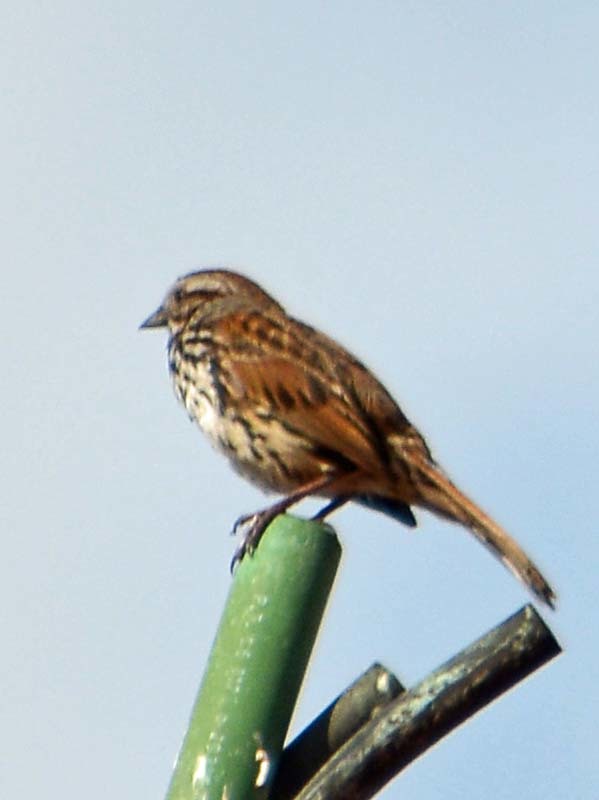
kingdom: Animalia
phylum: Chordata
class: Aves
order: Passeriformes
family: Passerellidae
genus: Melospiza
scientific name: Melospiza melodia
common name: Song sparrow
